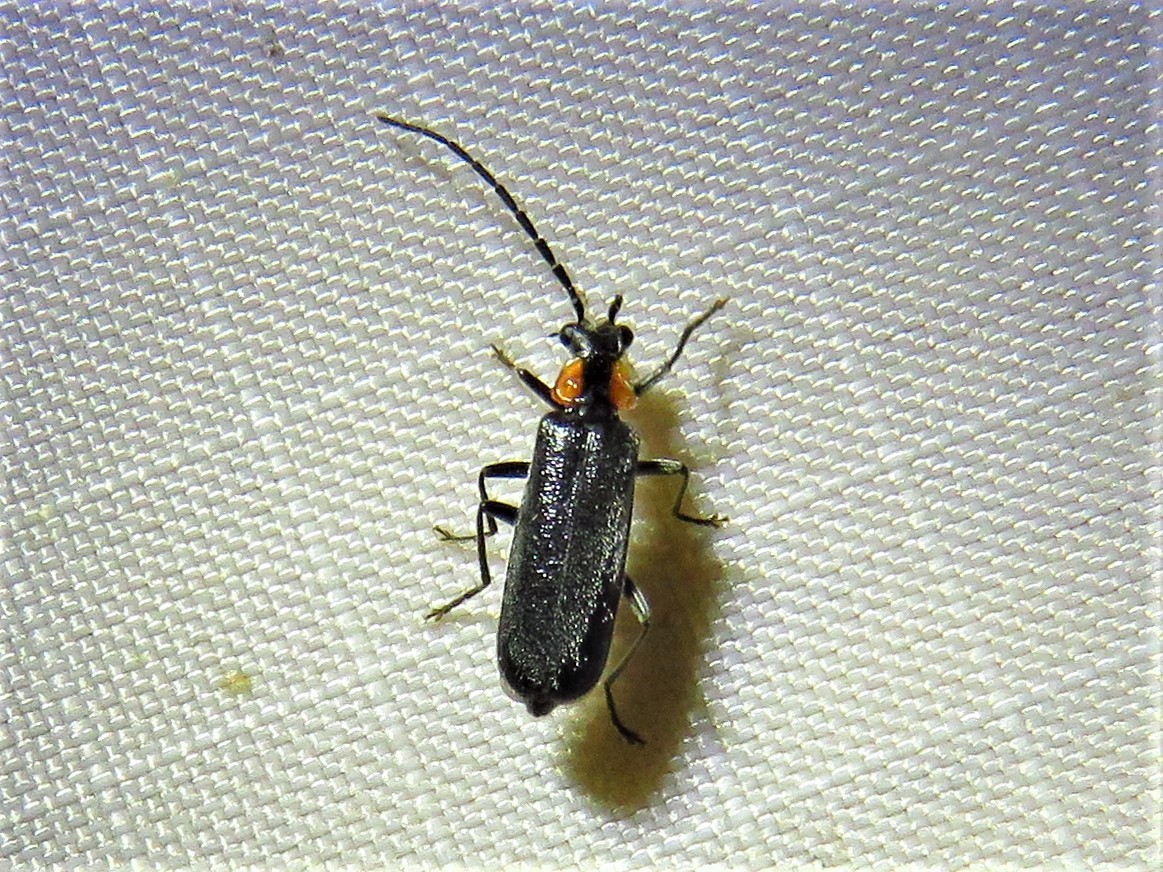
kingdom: Animalia
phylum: Arthropoda
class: Insecta
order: Coleoptera
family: Cantharidae
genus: Rhagonycha
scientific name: Rhagonycha lineola
